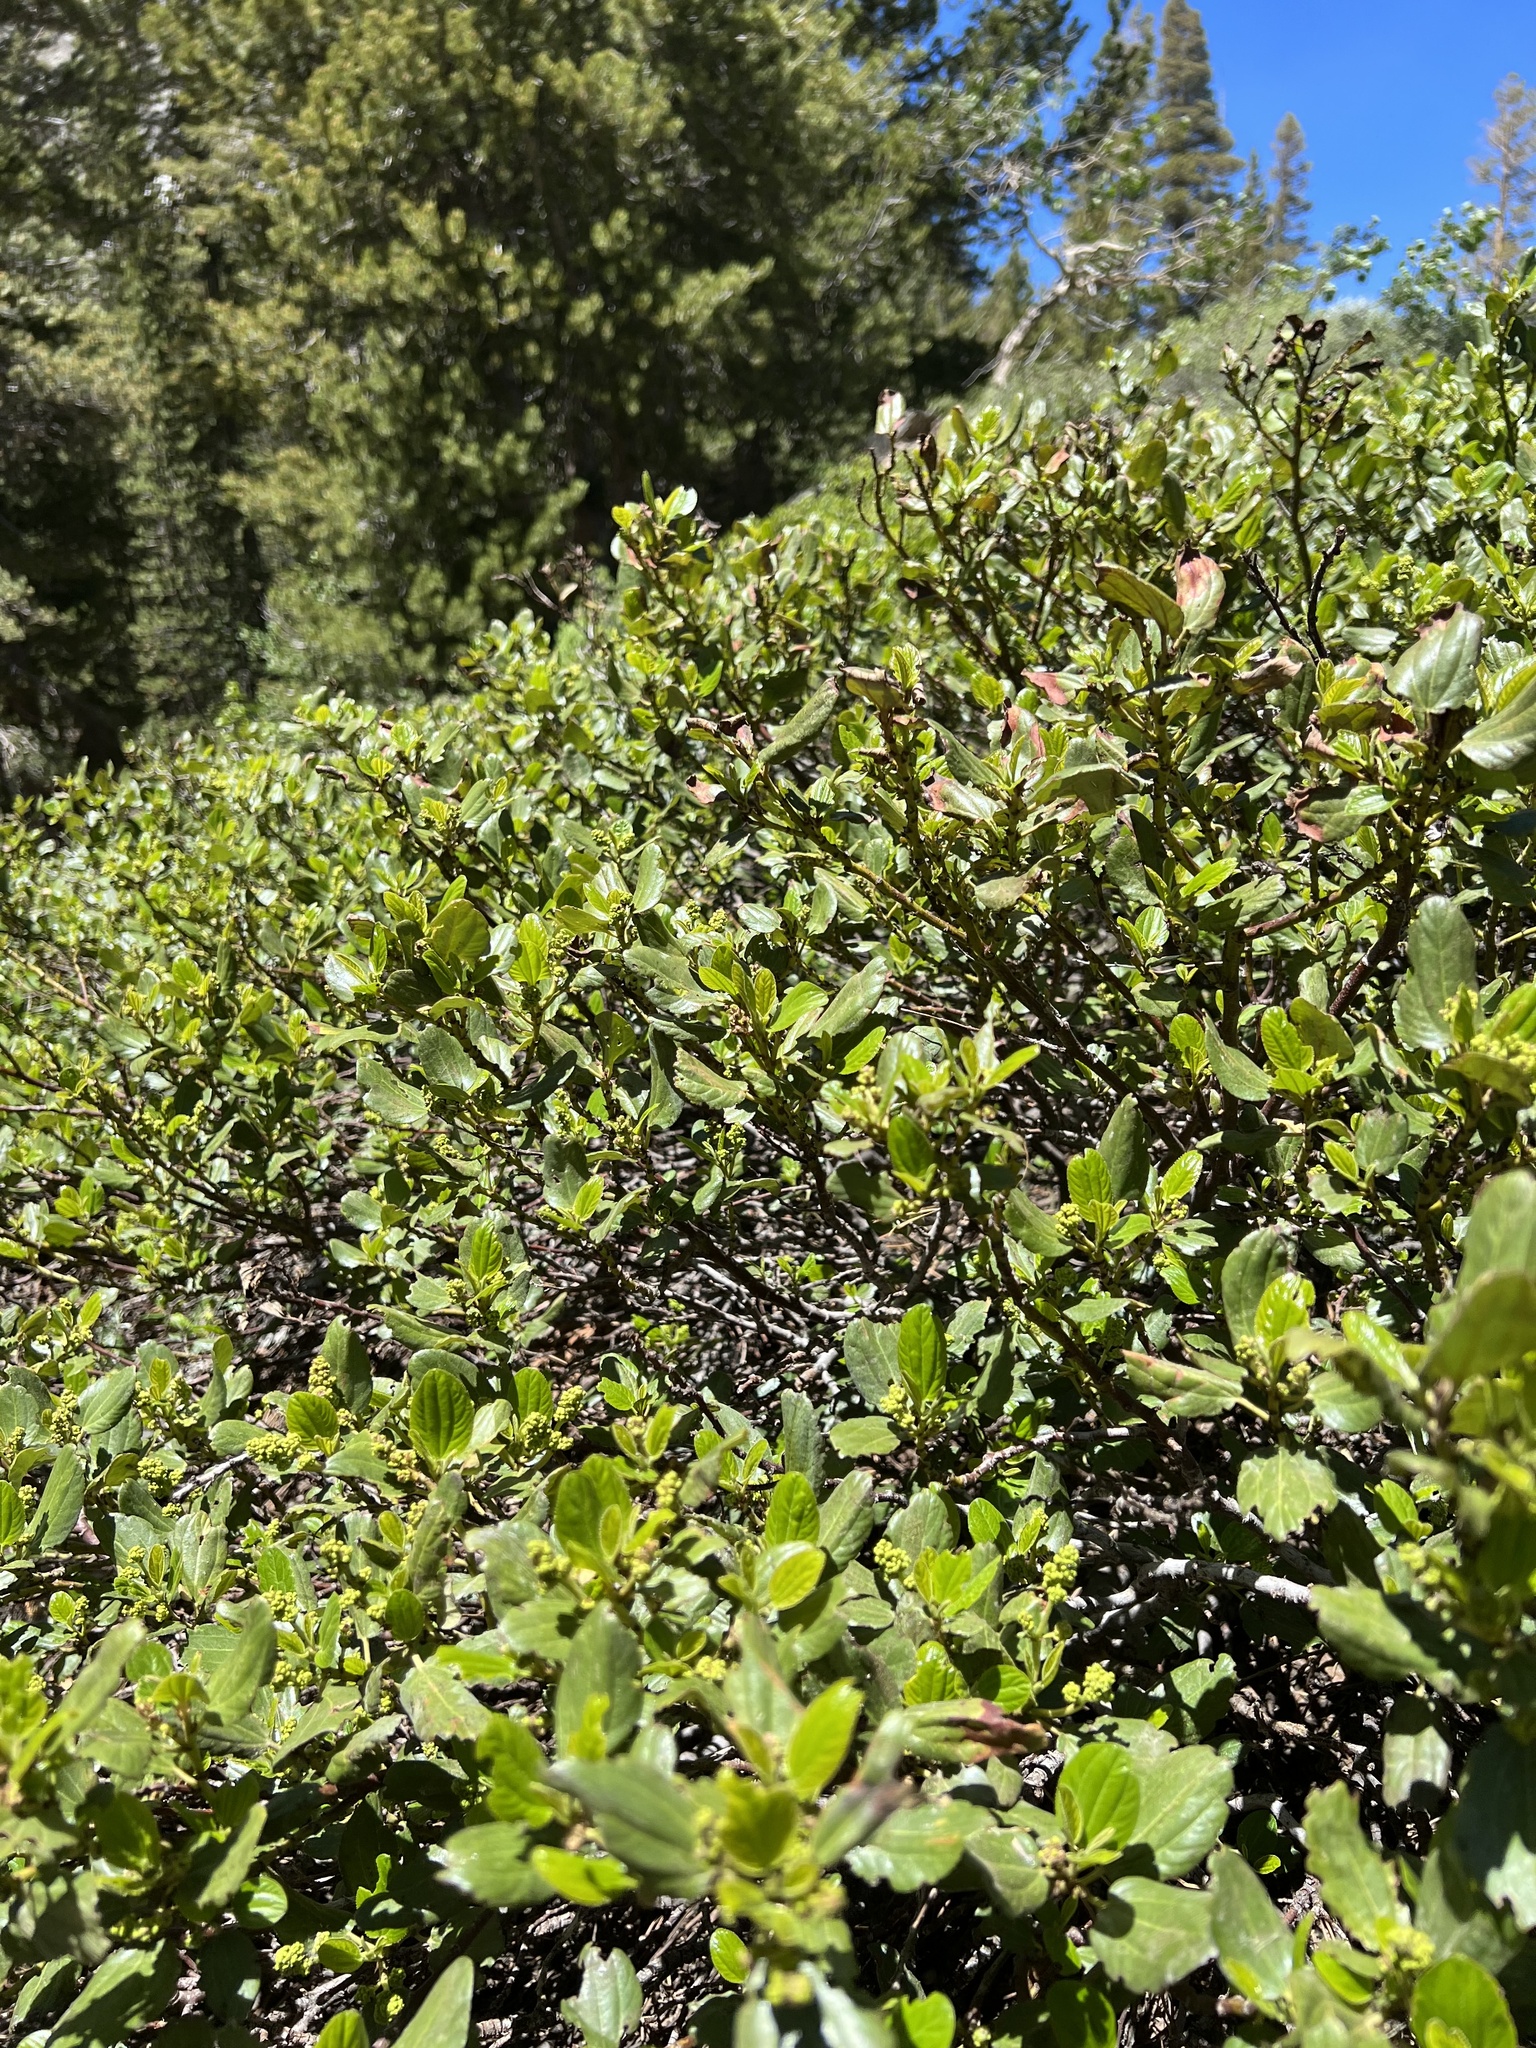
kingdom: Plantae
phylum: Tracheophyta
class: Magnoliopsida
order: Rosales
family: Rhamnaceae
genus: Ceanothus
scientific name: Ceanothus velutinus
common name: Snowbrush
